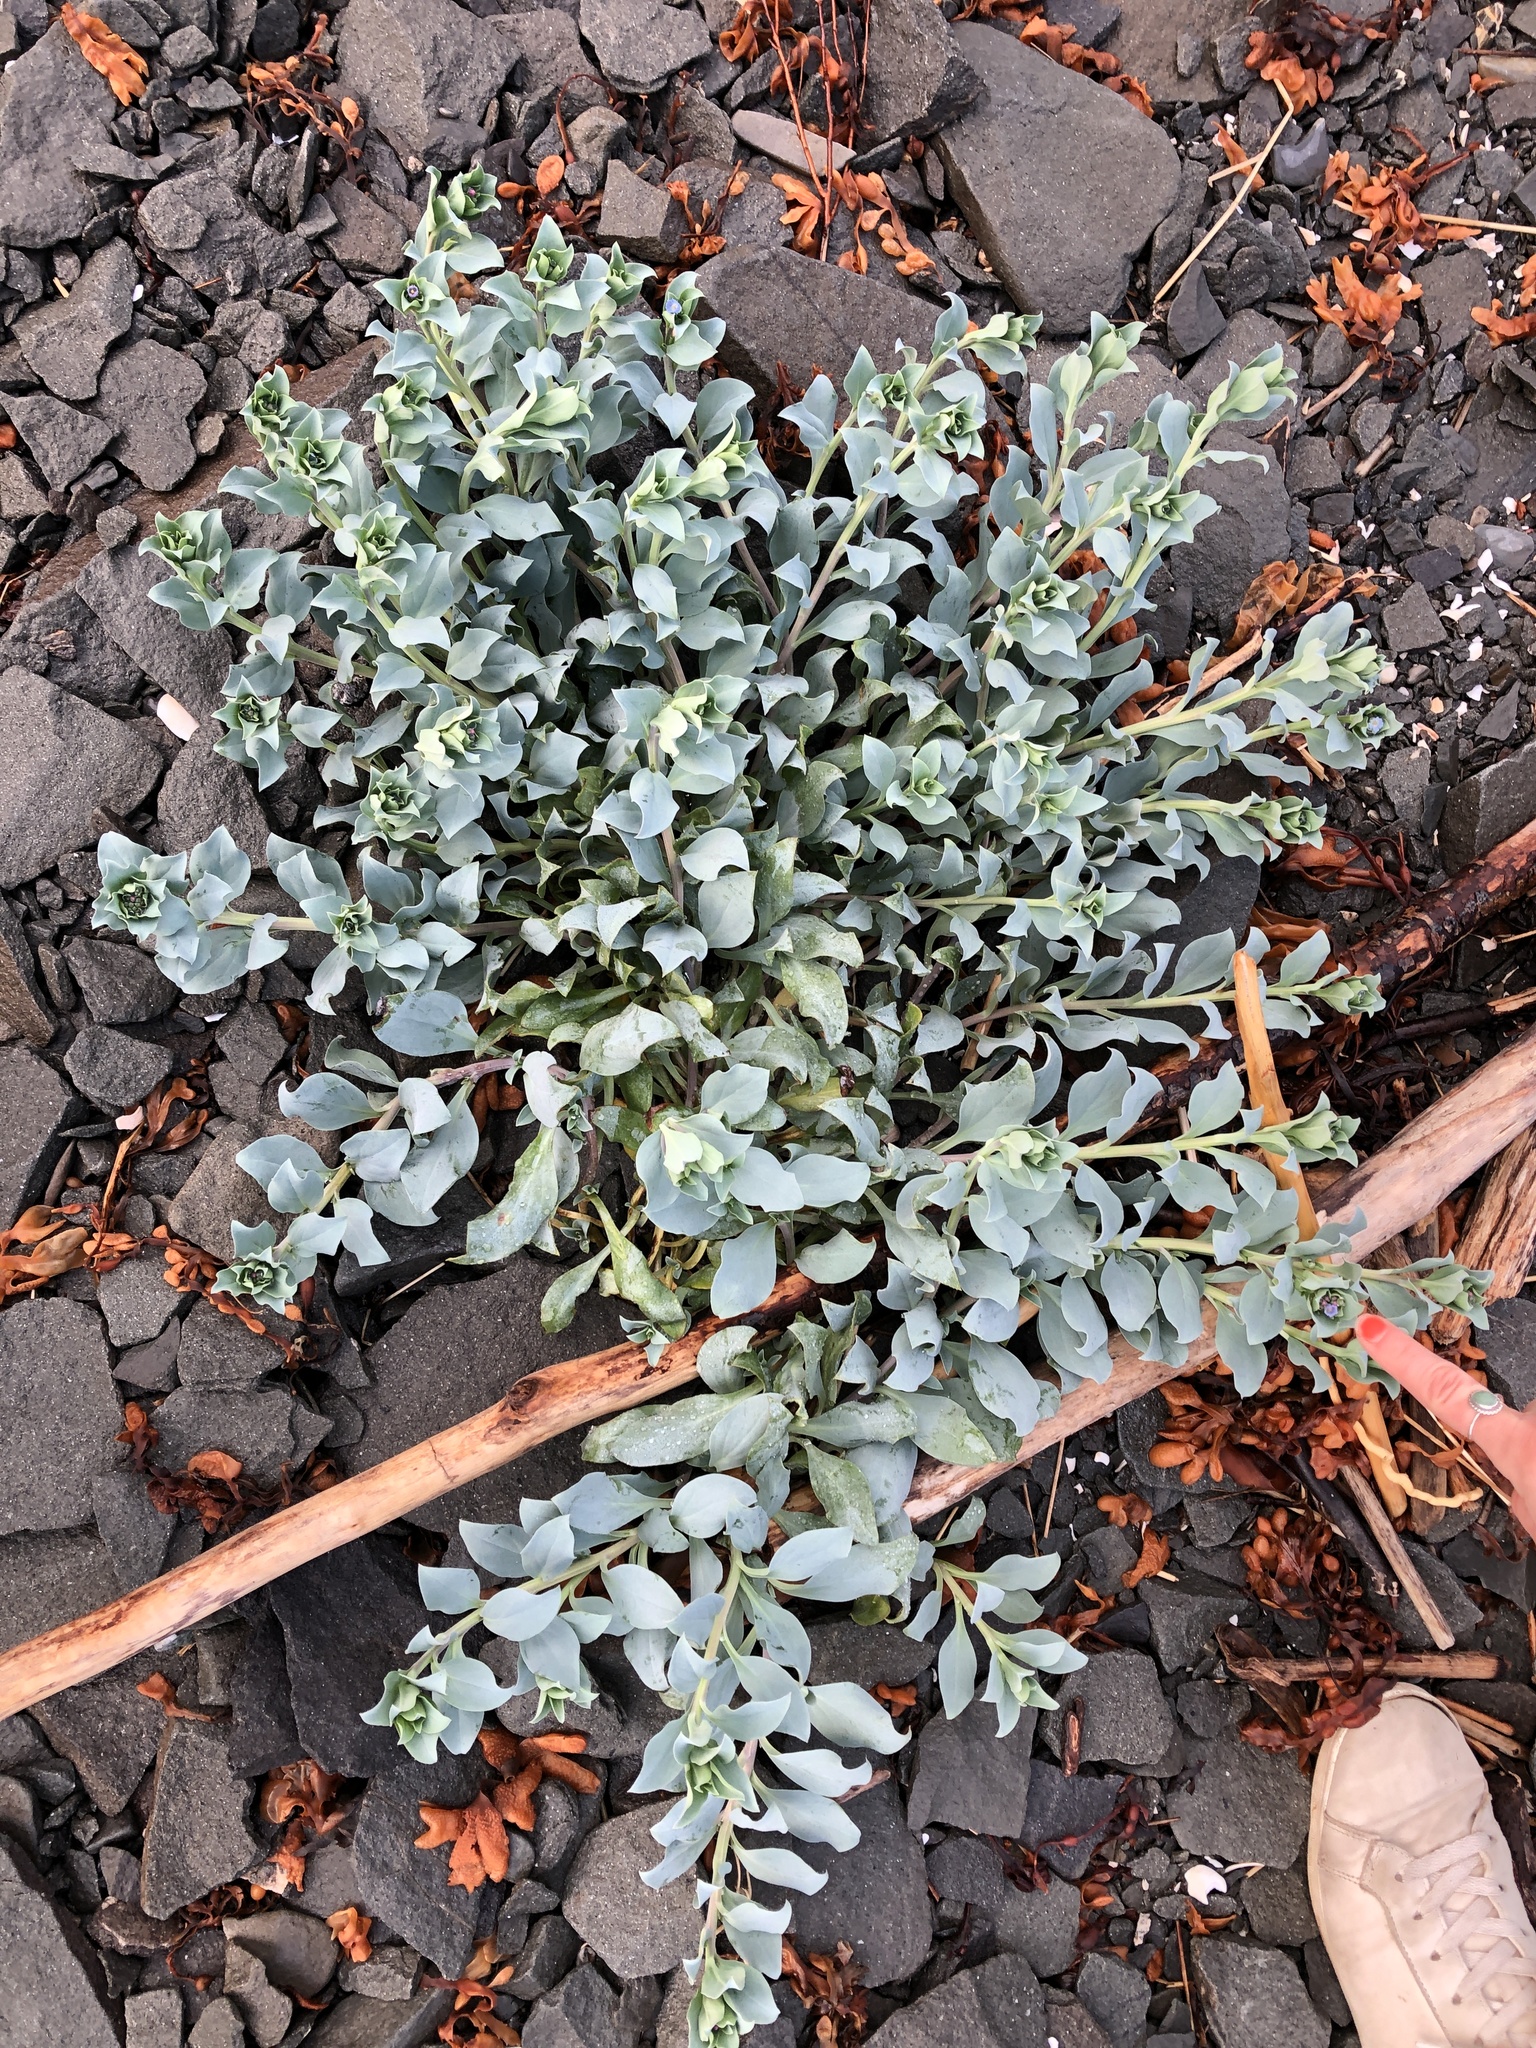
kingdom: Plantae
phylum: Tracheophyta
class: Magnoliopsida
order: Boraginales
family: Boraginaceae
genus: Mertensia
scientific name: Mertensia maritima
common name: Oysterplant
